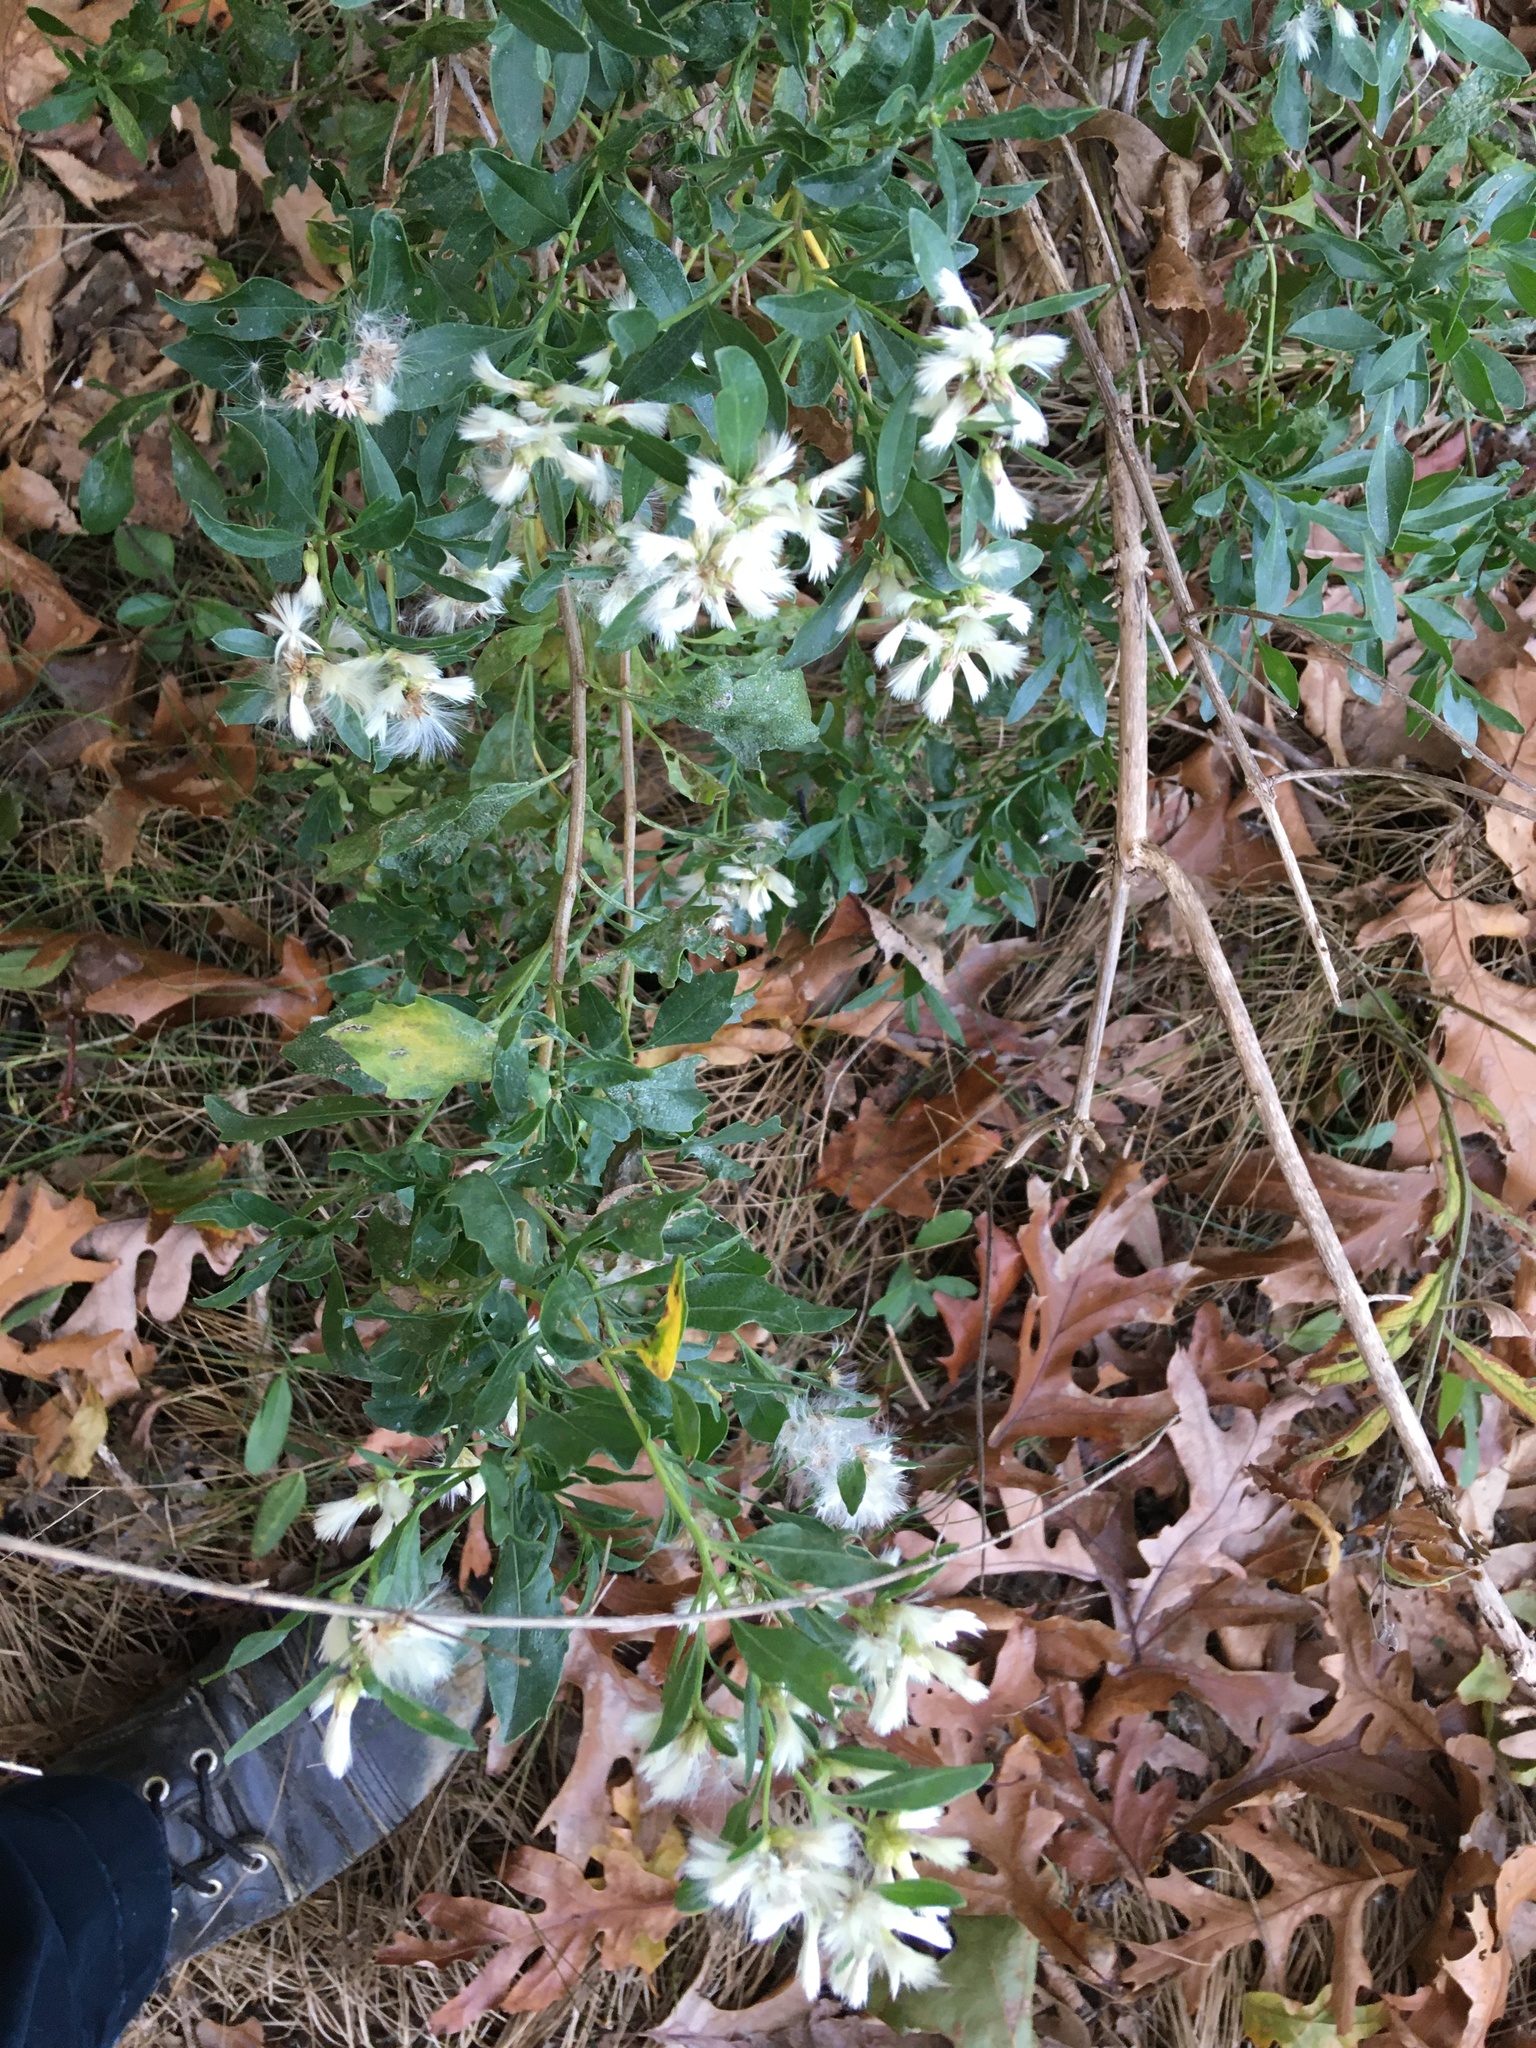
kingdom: Plantae
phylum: Tracheophyta
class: Magnoliopsida
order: Asterales
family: Asteraceae
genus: Baccharis
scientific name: Baccharis halimifolia
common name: Eastern baccharis
